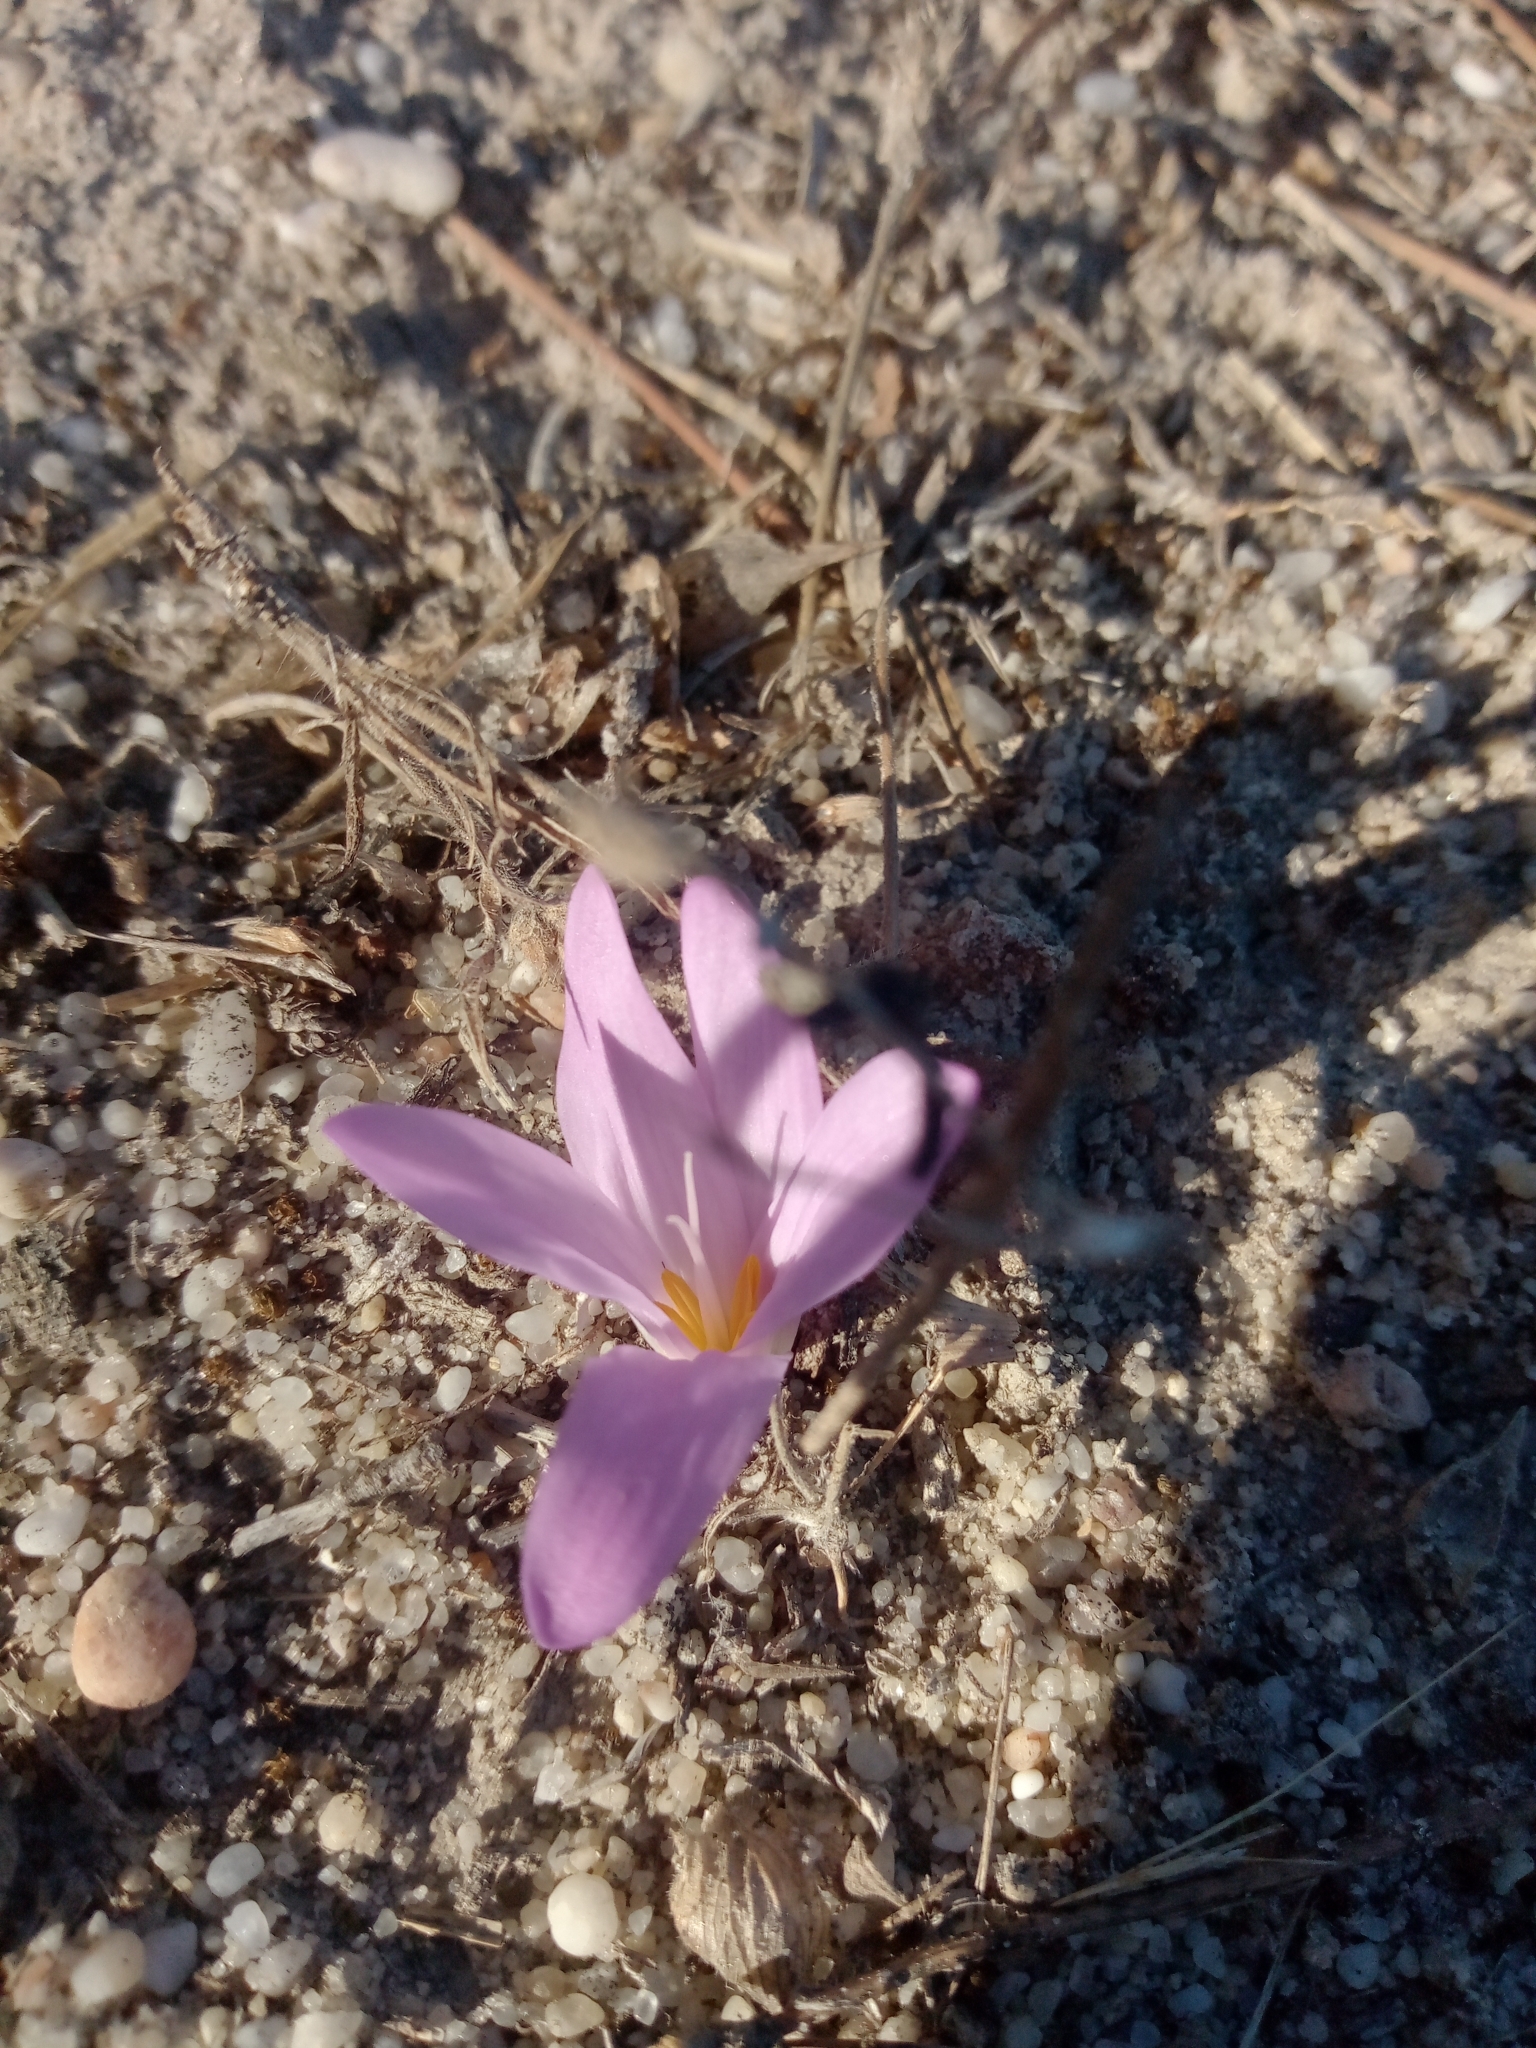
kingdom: Plantae
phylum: Tracheophyta
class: Liliopsida
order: Liliales
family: Colchicaceae
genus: Colchicum
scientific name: Colchicum filifolium
